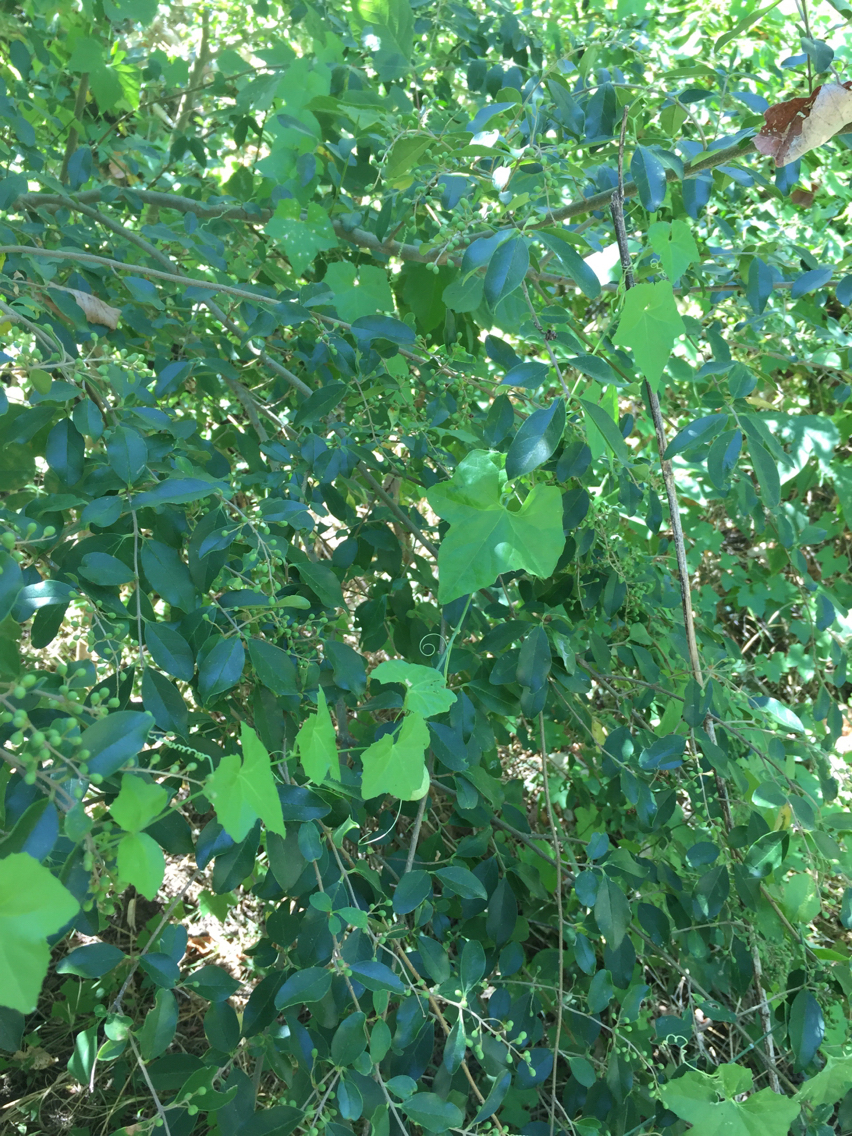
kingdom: Plantae
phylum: Tracheophyta
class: Magnoliopsida
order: Cucurbitales
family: Cucurbitaceae
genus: Melothria
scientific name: Melothria pendula
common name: Creeping-cucumber
